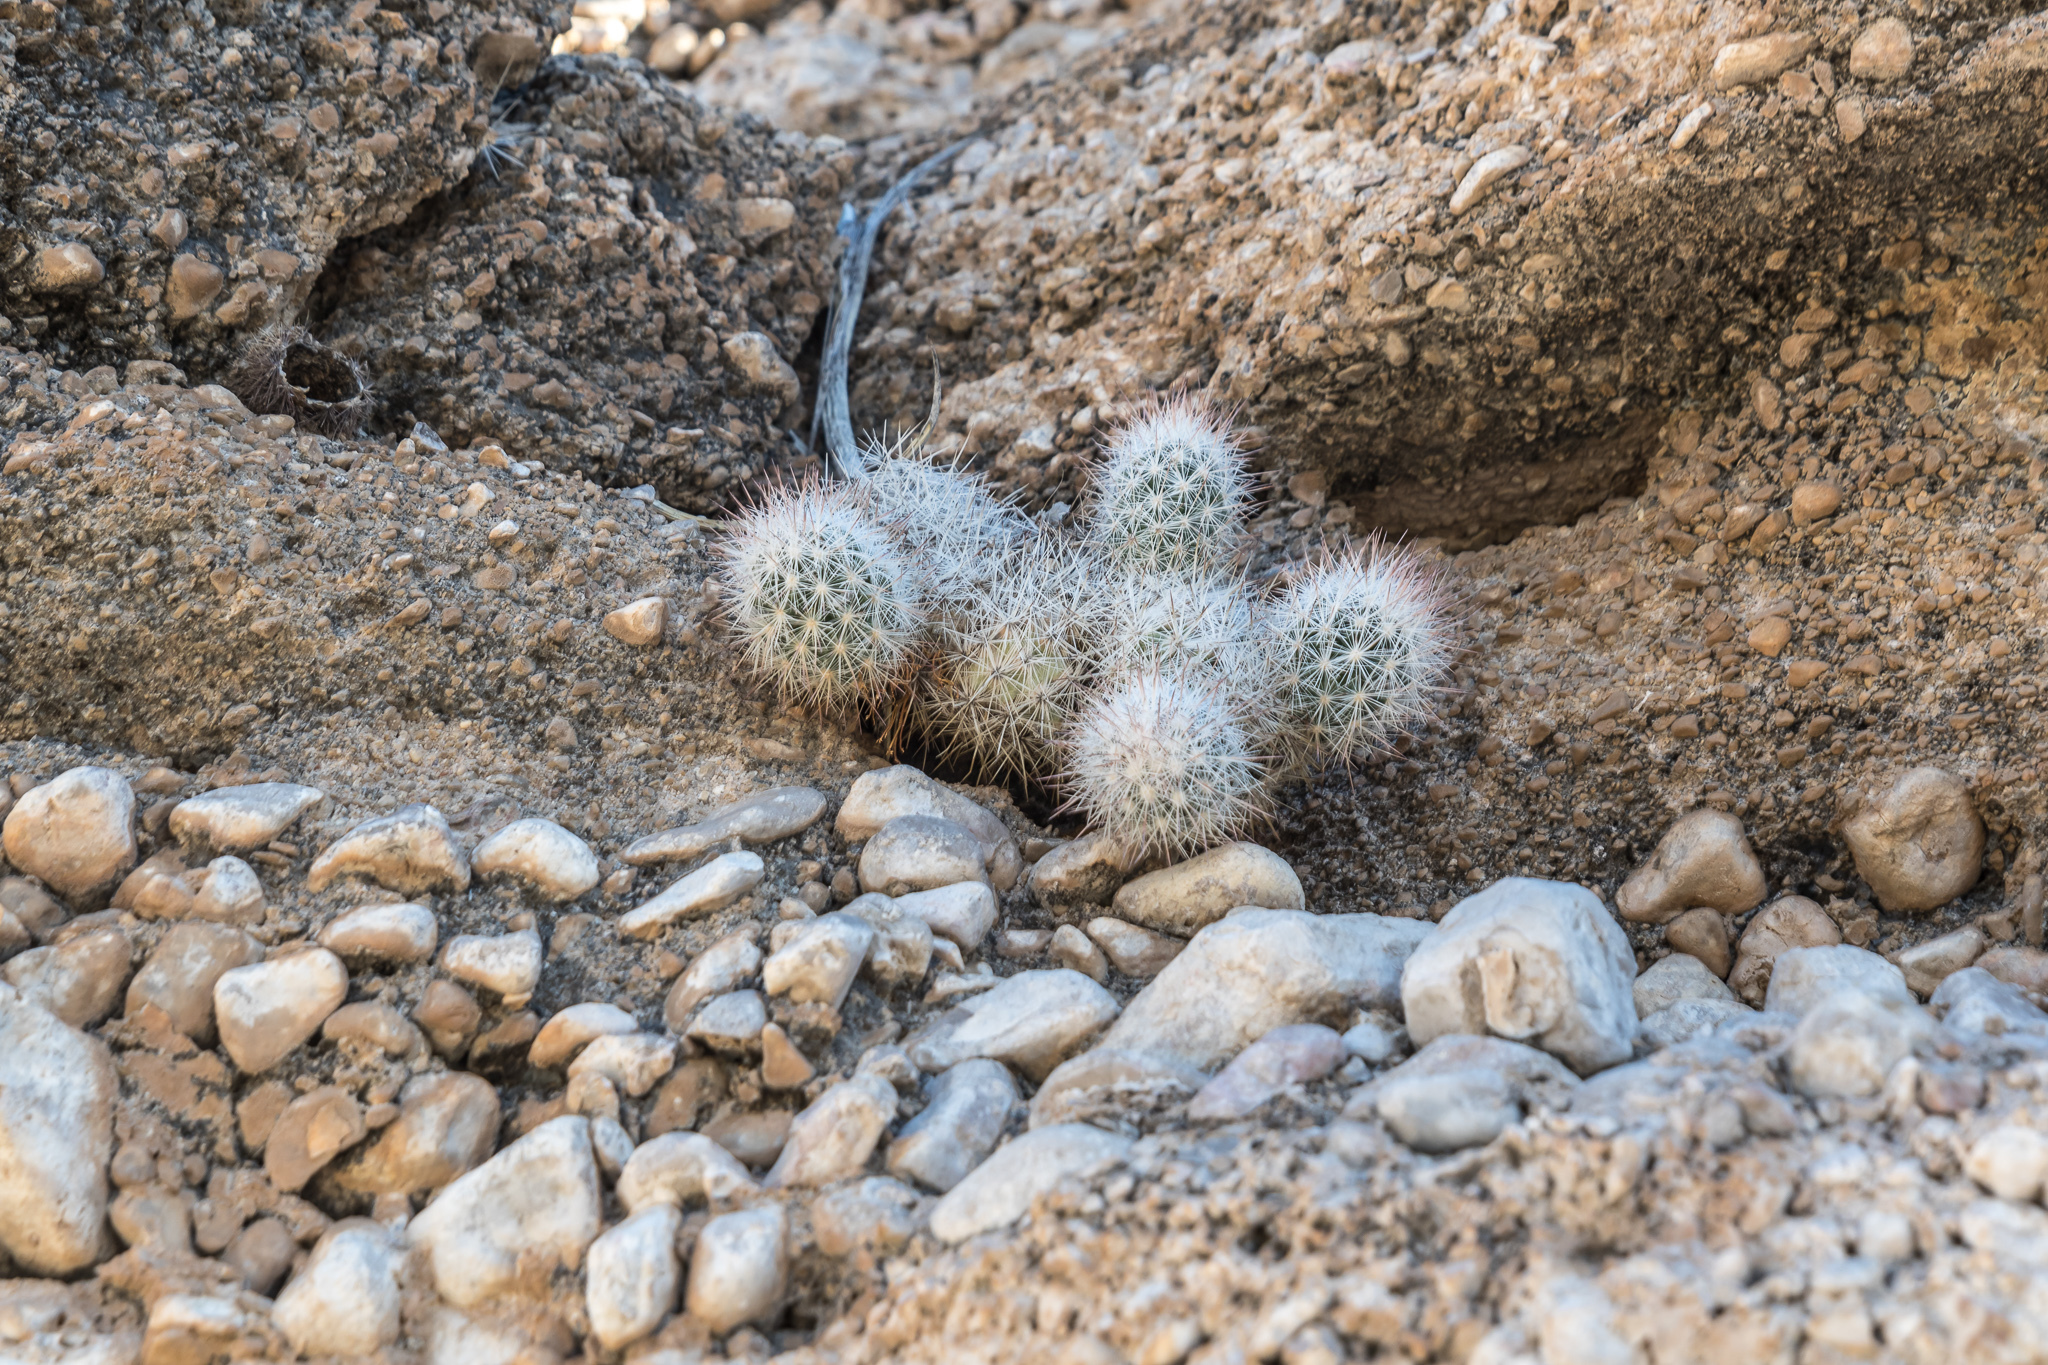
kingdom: Plantae
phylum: Tracheophyta
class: Magnoliopsida
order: Caryophyllales
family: Cactaceae
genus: Pelecyphora
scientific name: Pelecyphora tuberculosa
